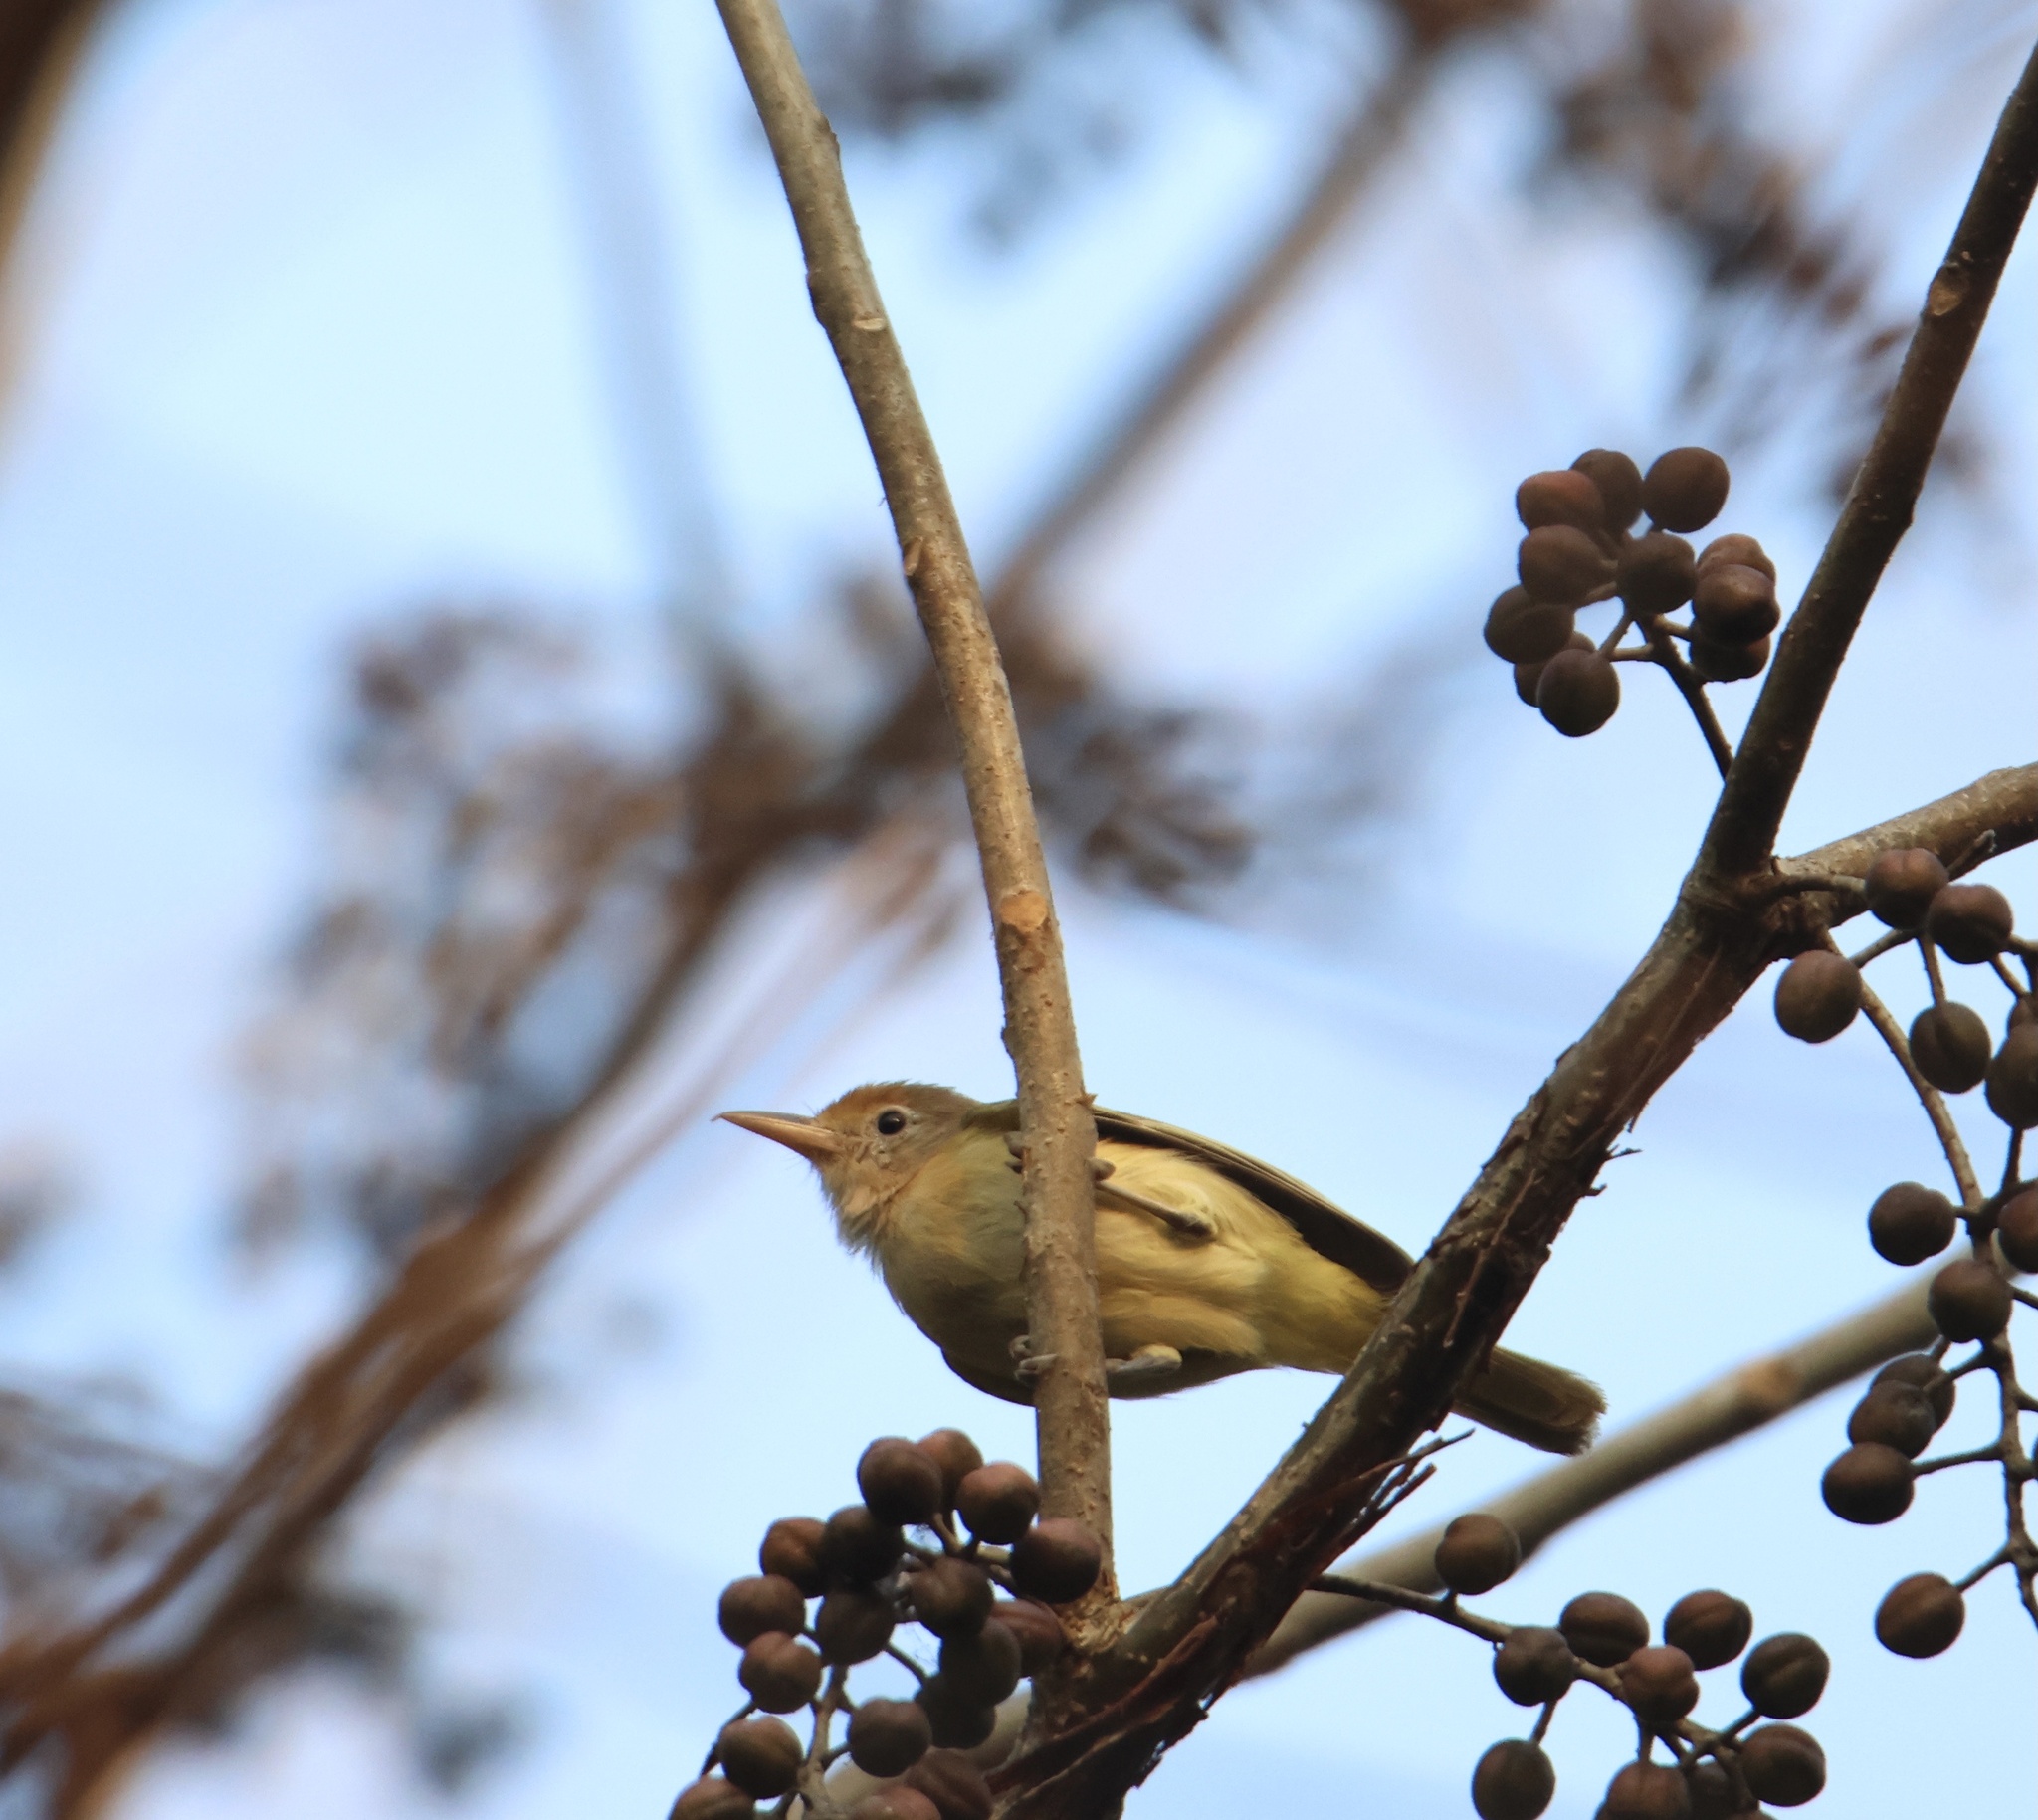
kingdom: Animalia
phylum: Chordata
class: Aves
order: Passeriformes
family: Vireonidae
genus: Hylophilus
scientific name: Hylophilus aurantiifrons
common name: Golden-fronted greenlet
